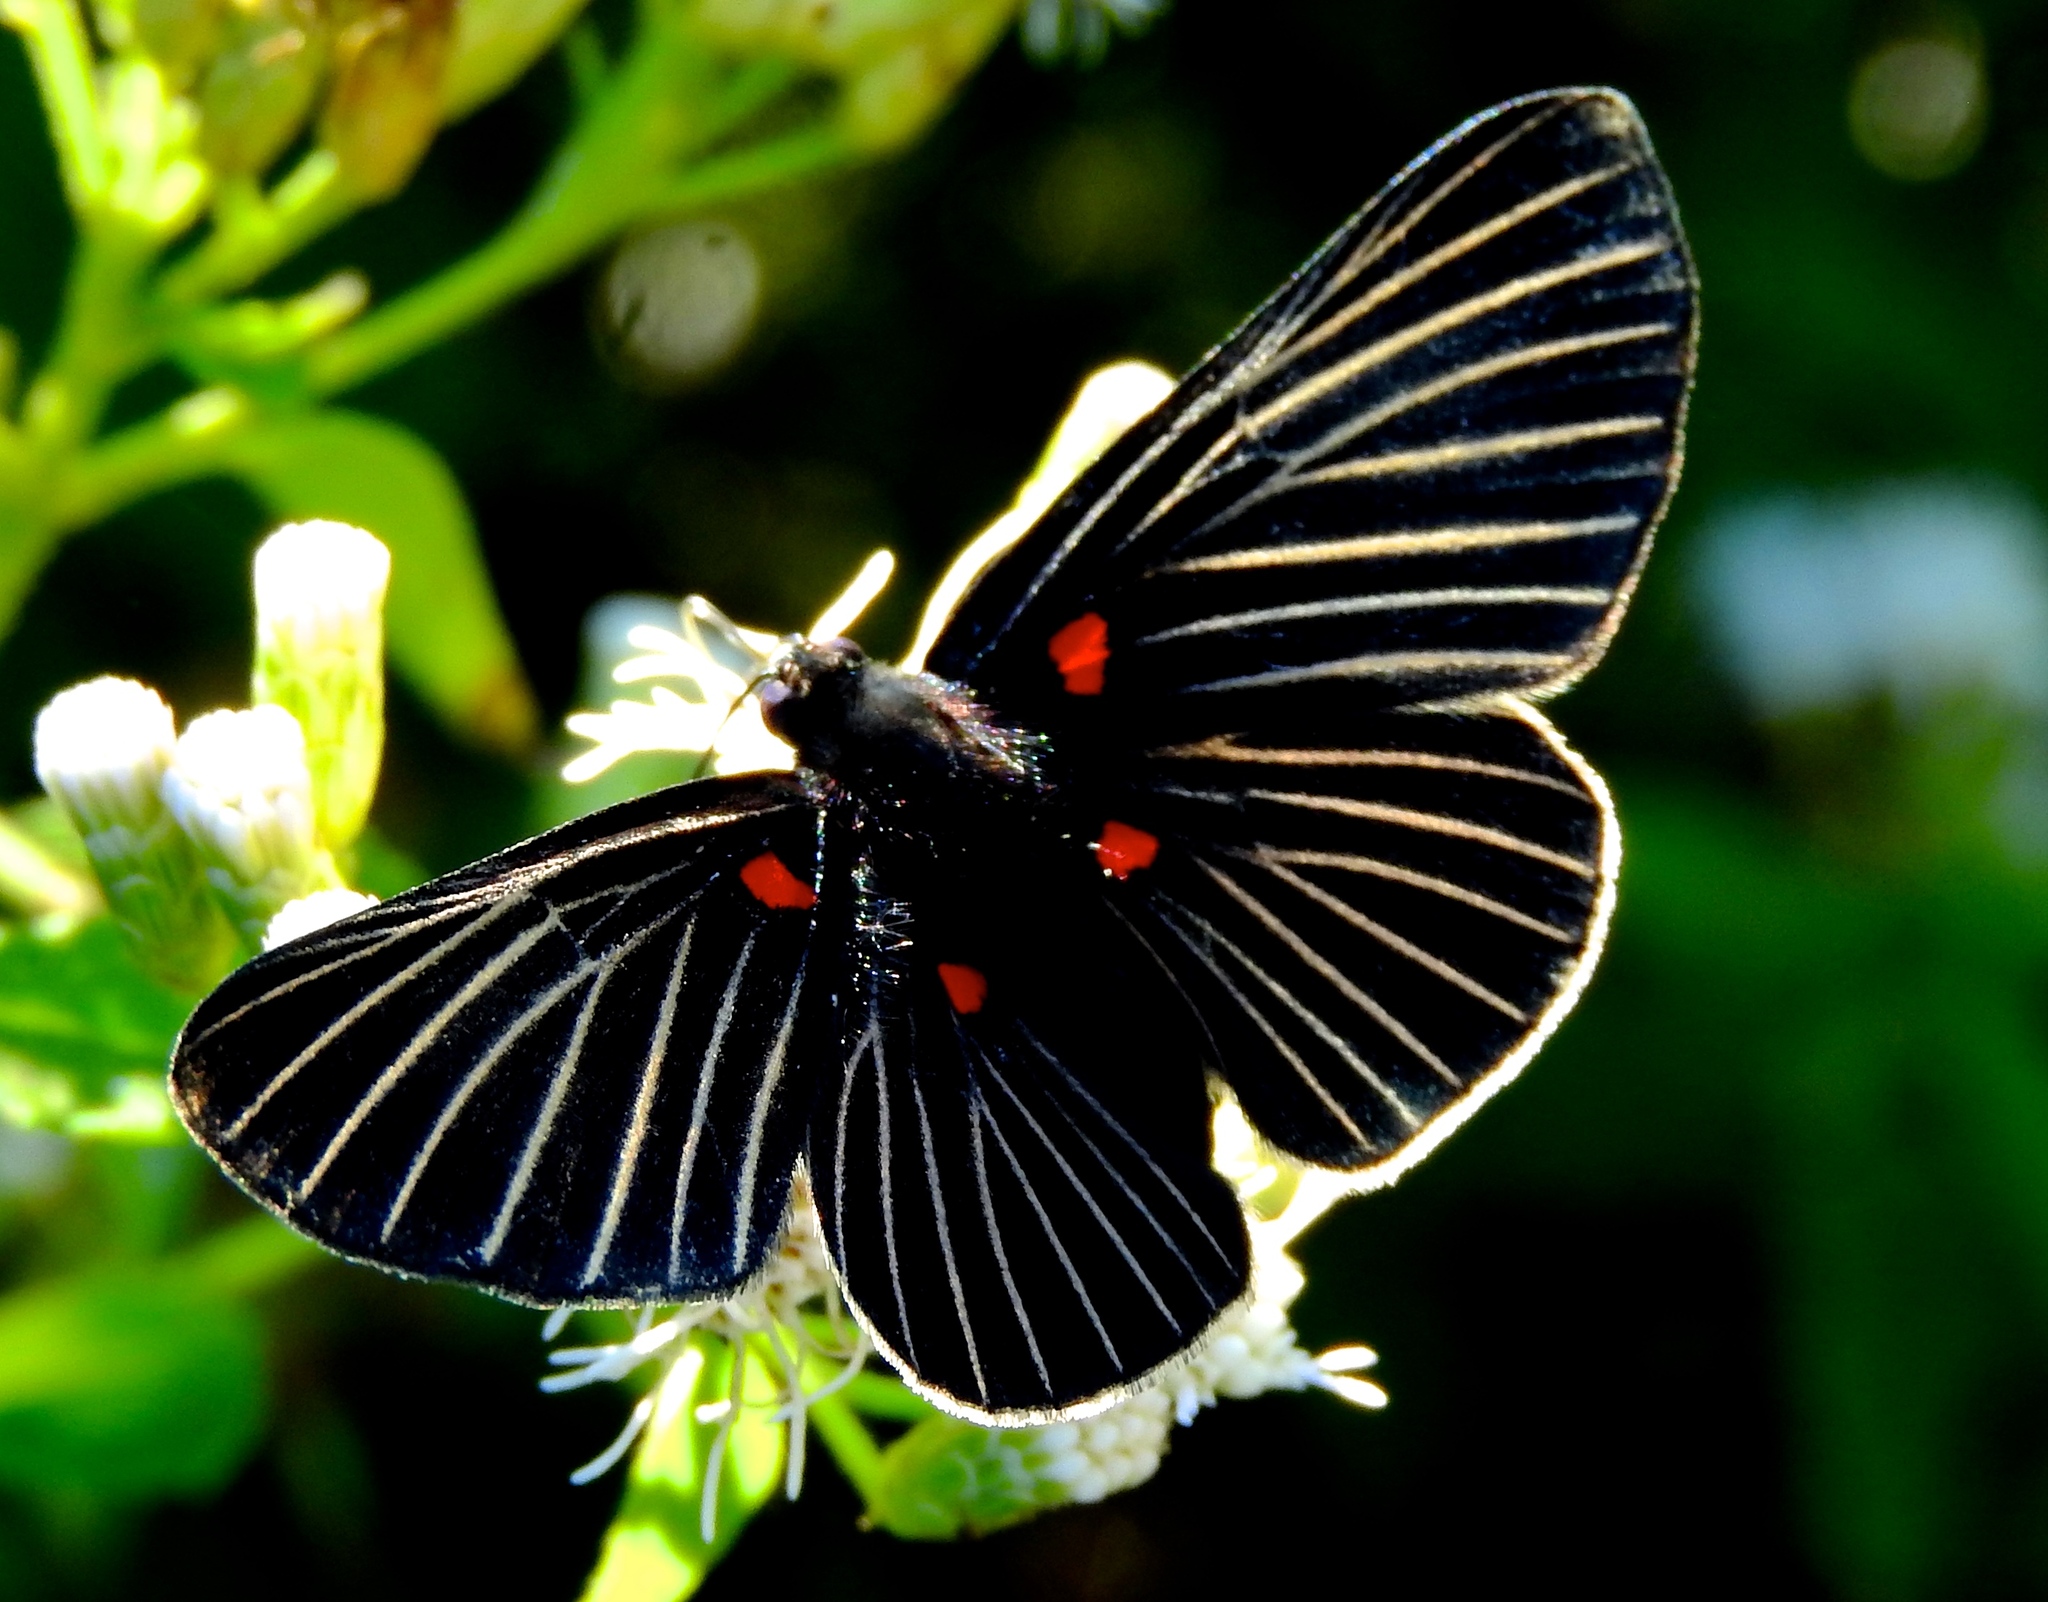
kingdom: Animalia
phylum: Arthropoda
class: Insecta
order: Lepidoptera
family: Lycaenidae
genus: Melanis
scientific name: Melanis
